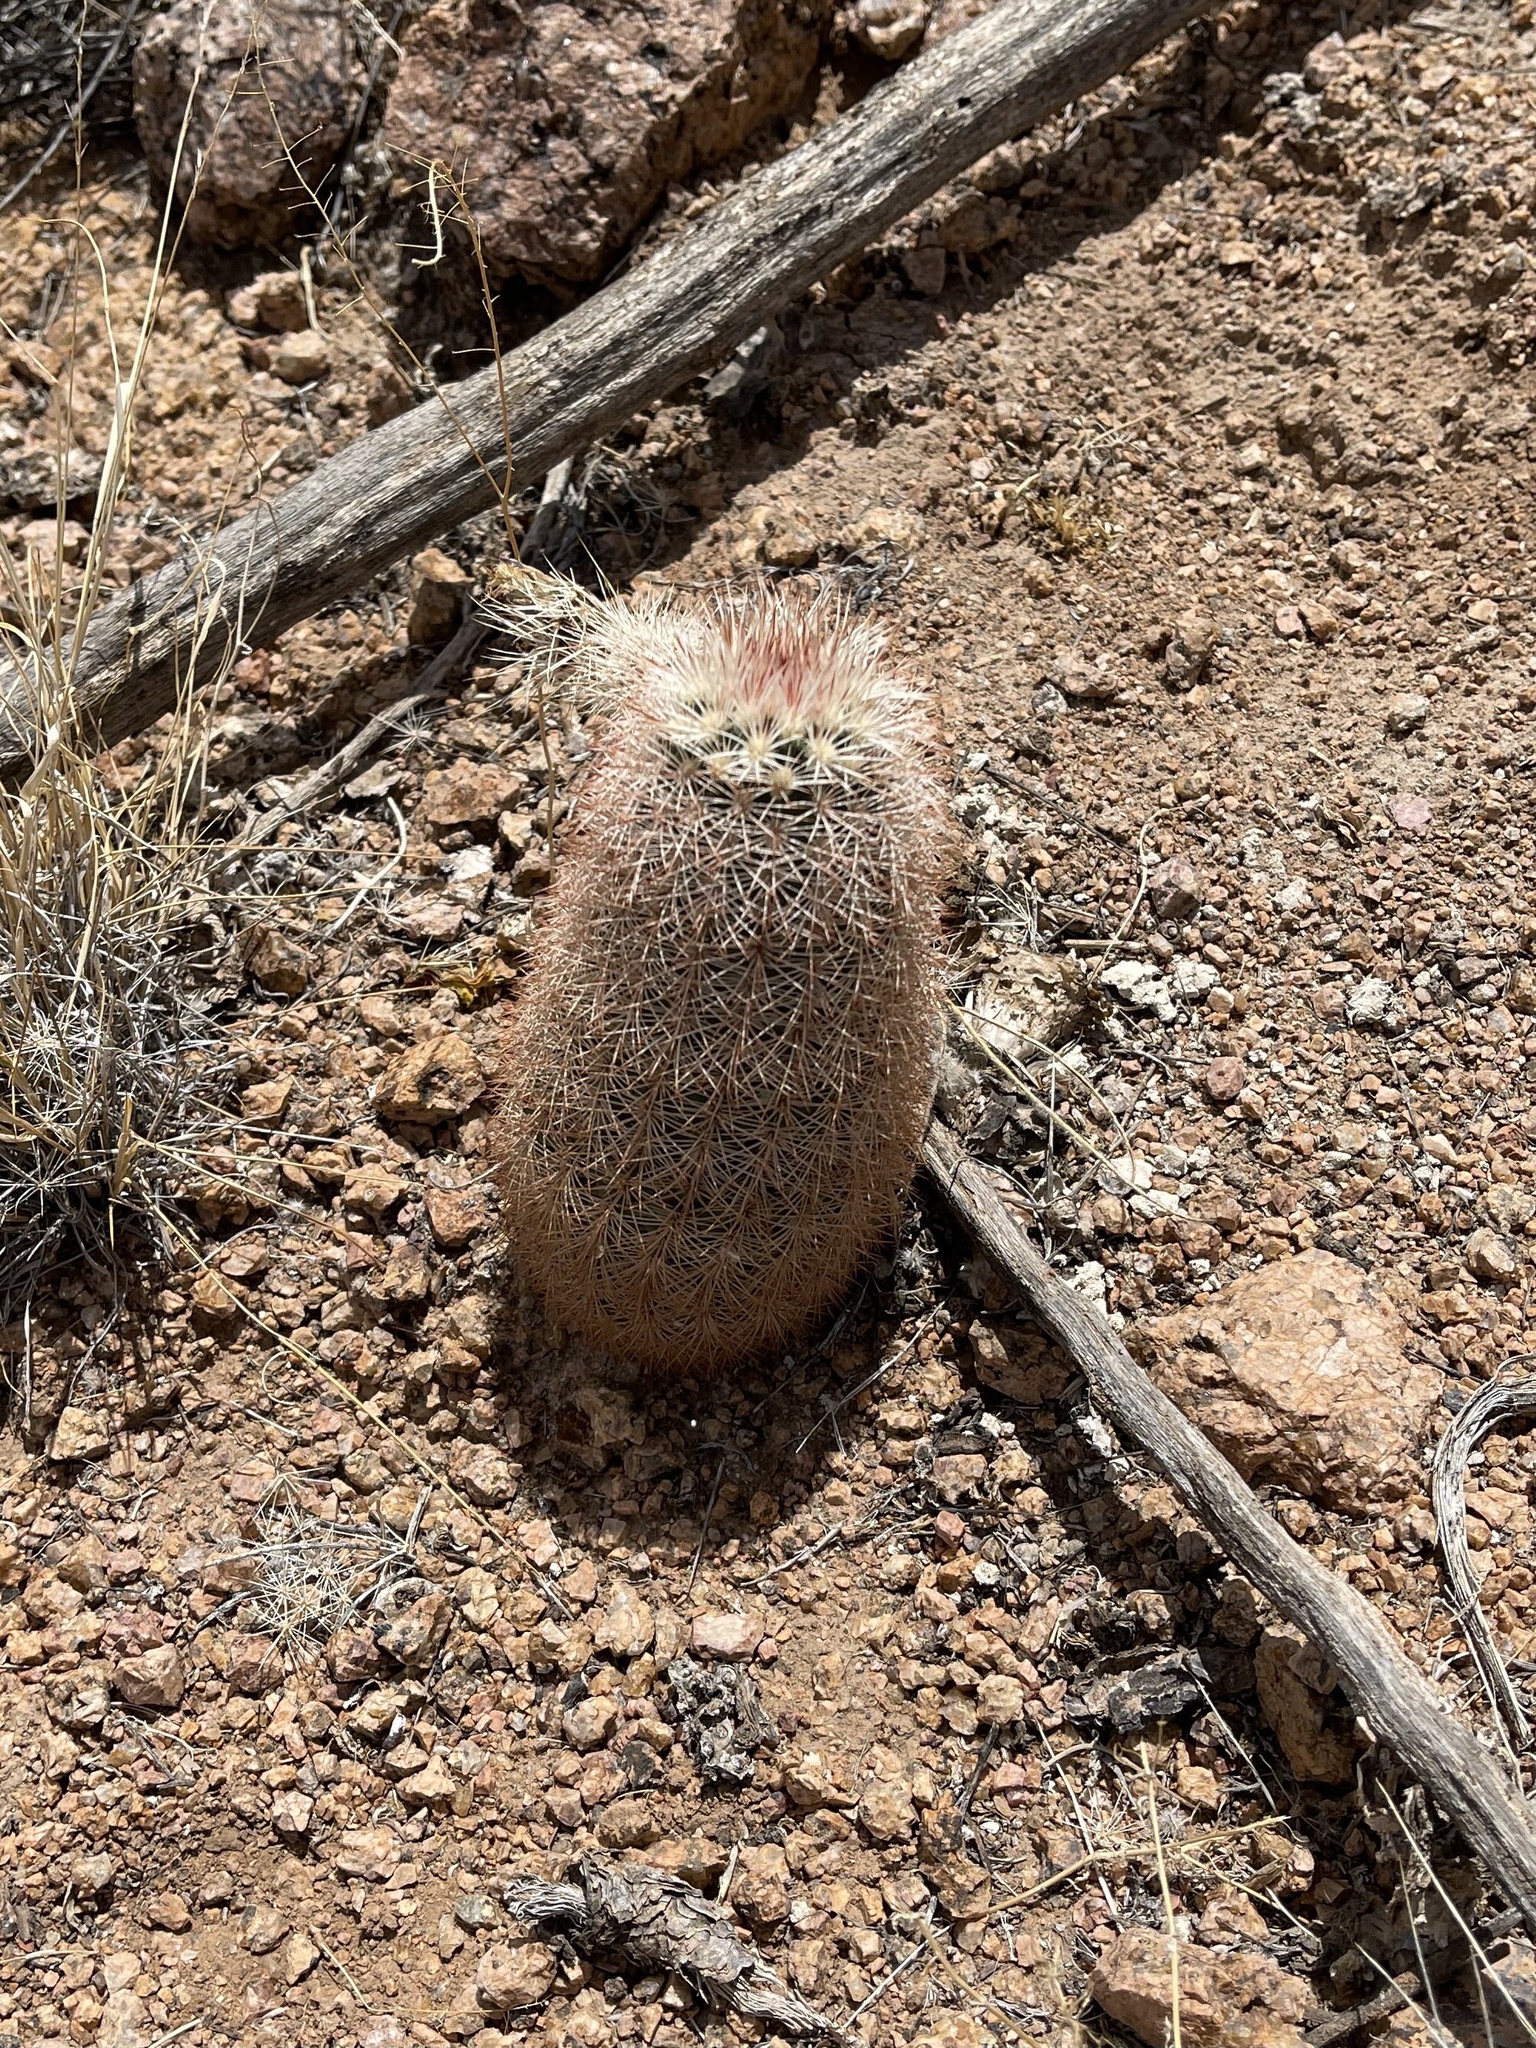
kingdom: Plantae
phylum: Tracheophyta
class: Magnoliopsida
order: Caryophyllales
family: Cactaceae
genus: Echinocereus
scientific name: Echinocereus dasyacanthus
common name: Spiny hedgehog cactus
